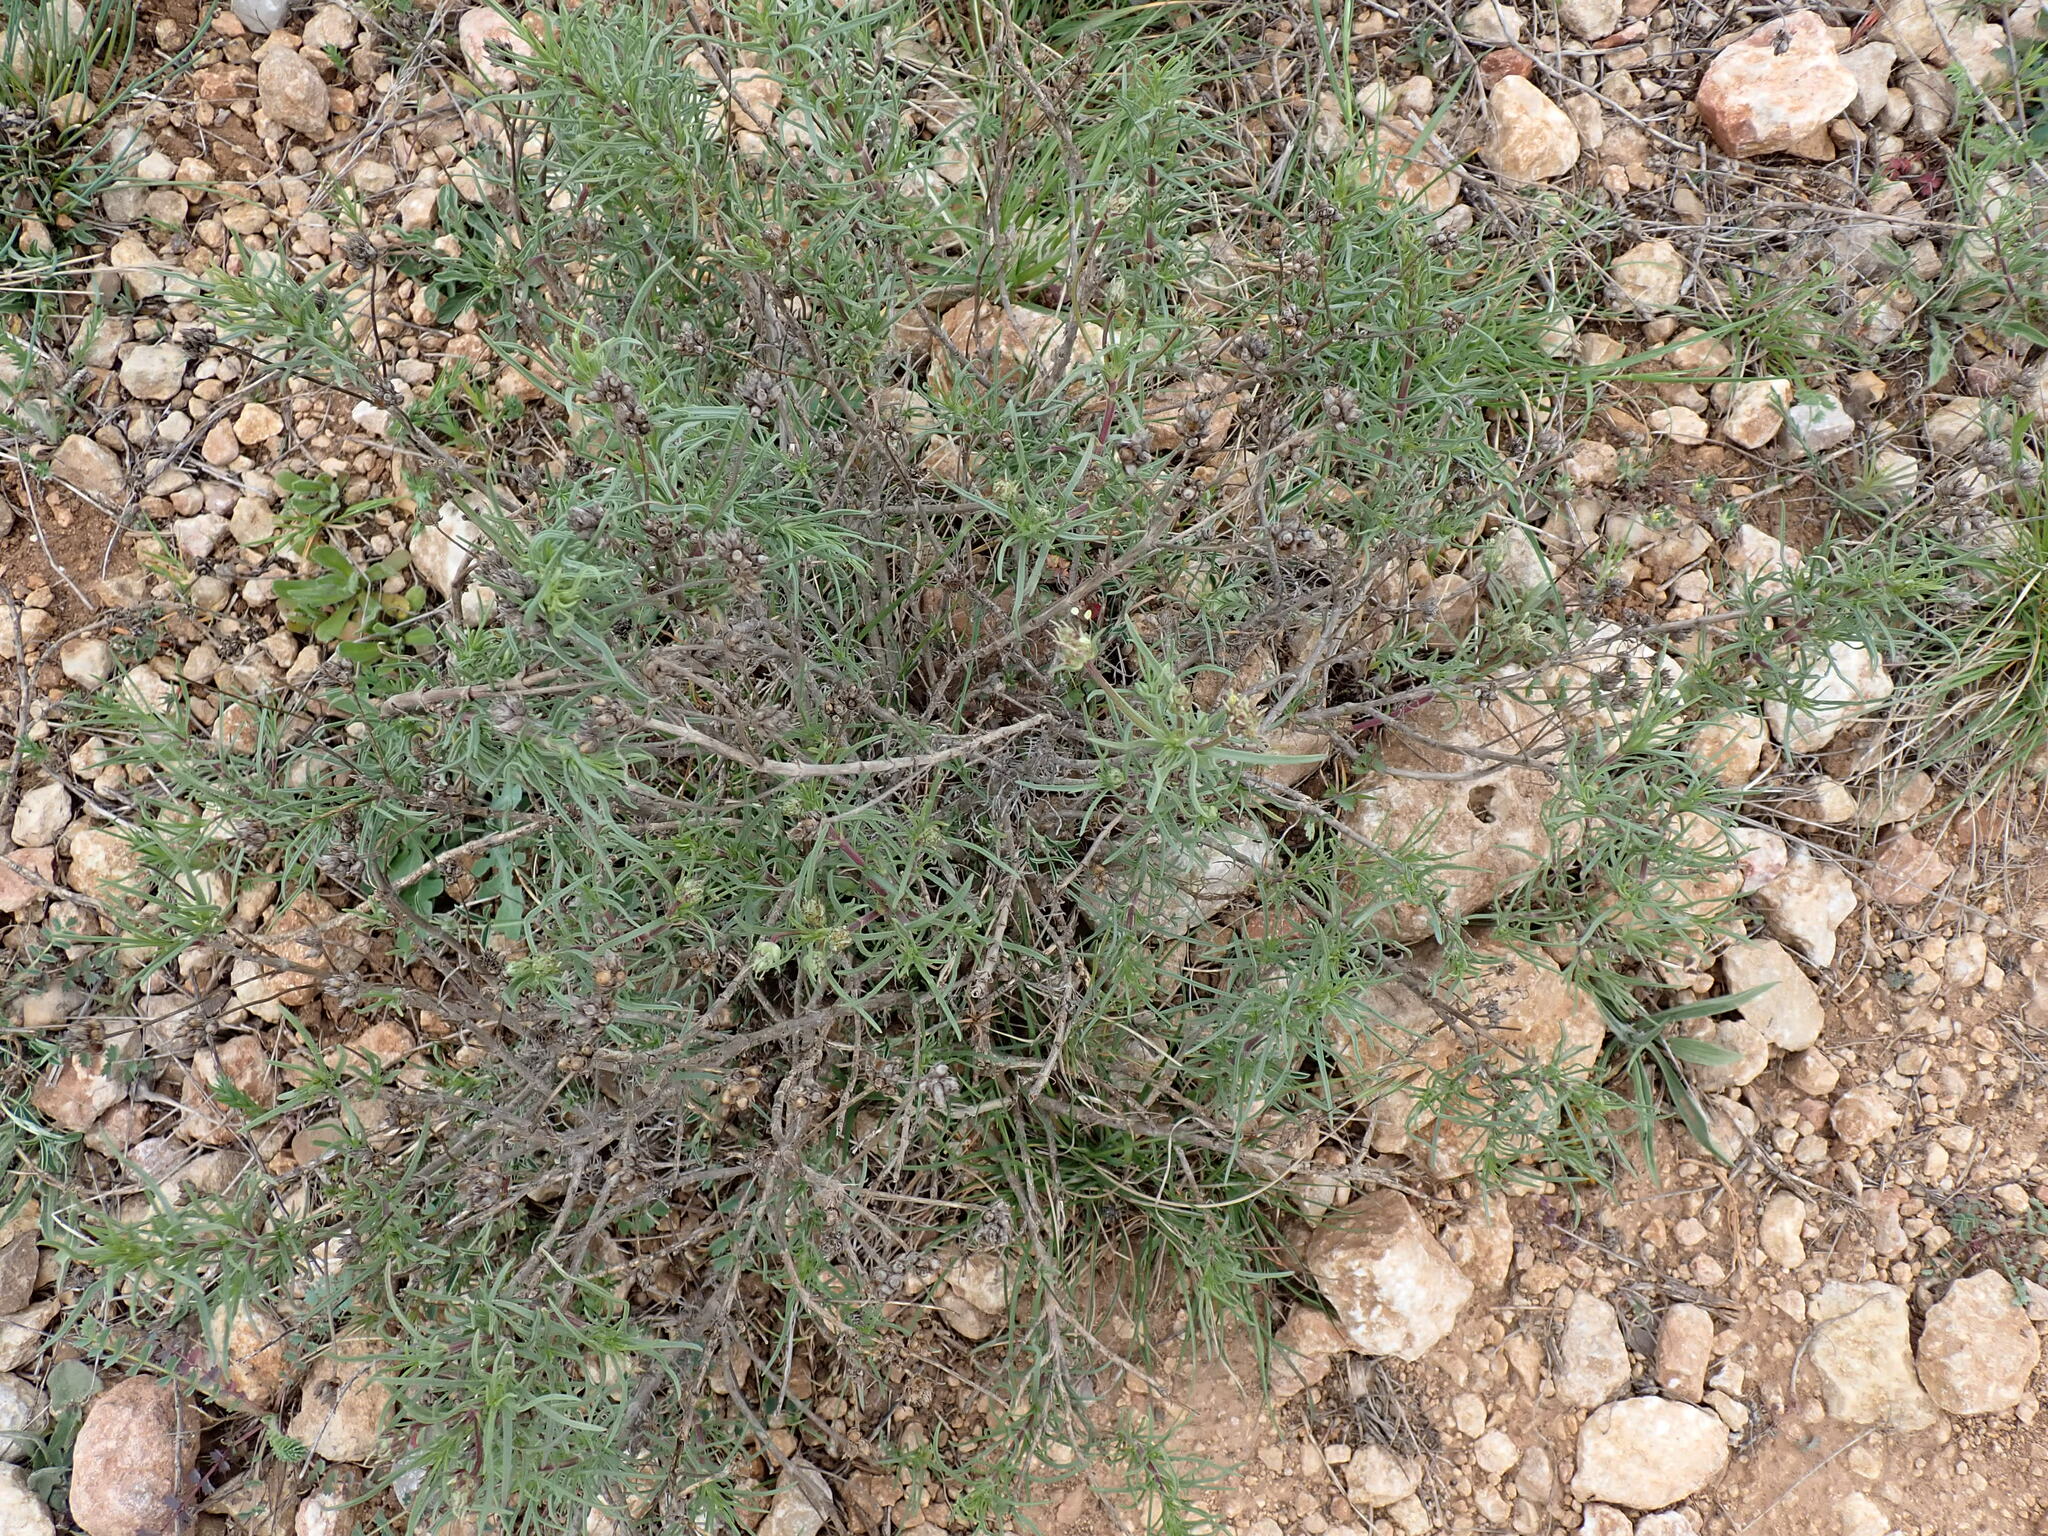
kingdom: Plantae
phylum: Tracheophyta
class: Magnoliopsida
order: Lamiales
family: Plantaginaceae
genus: Plantago
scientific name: Plantago sempervirens
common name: Shrubby plantain
